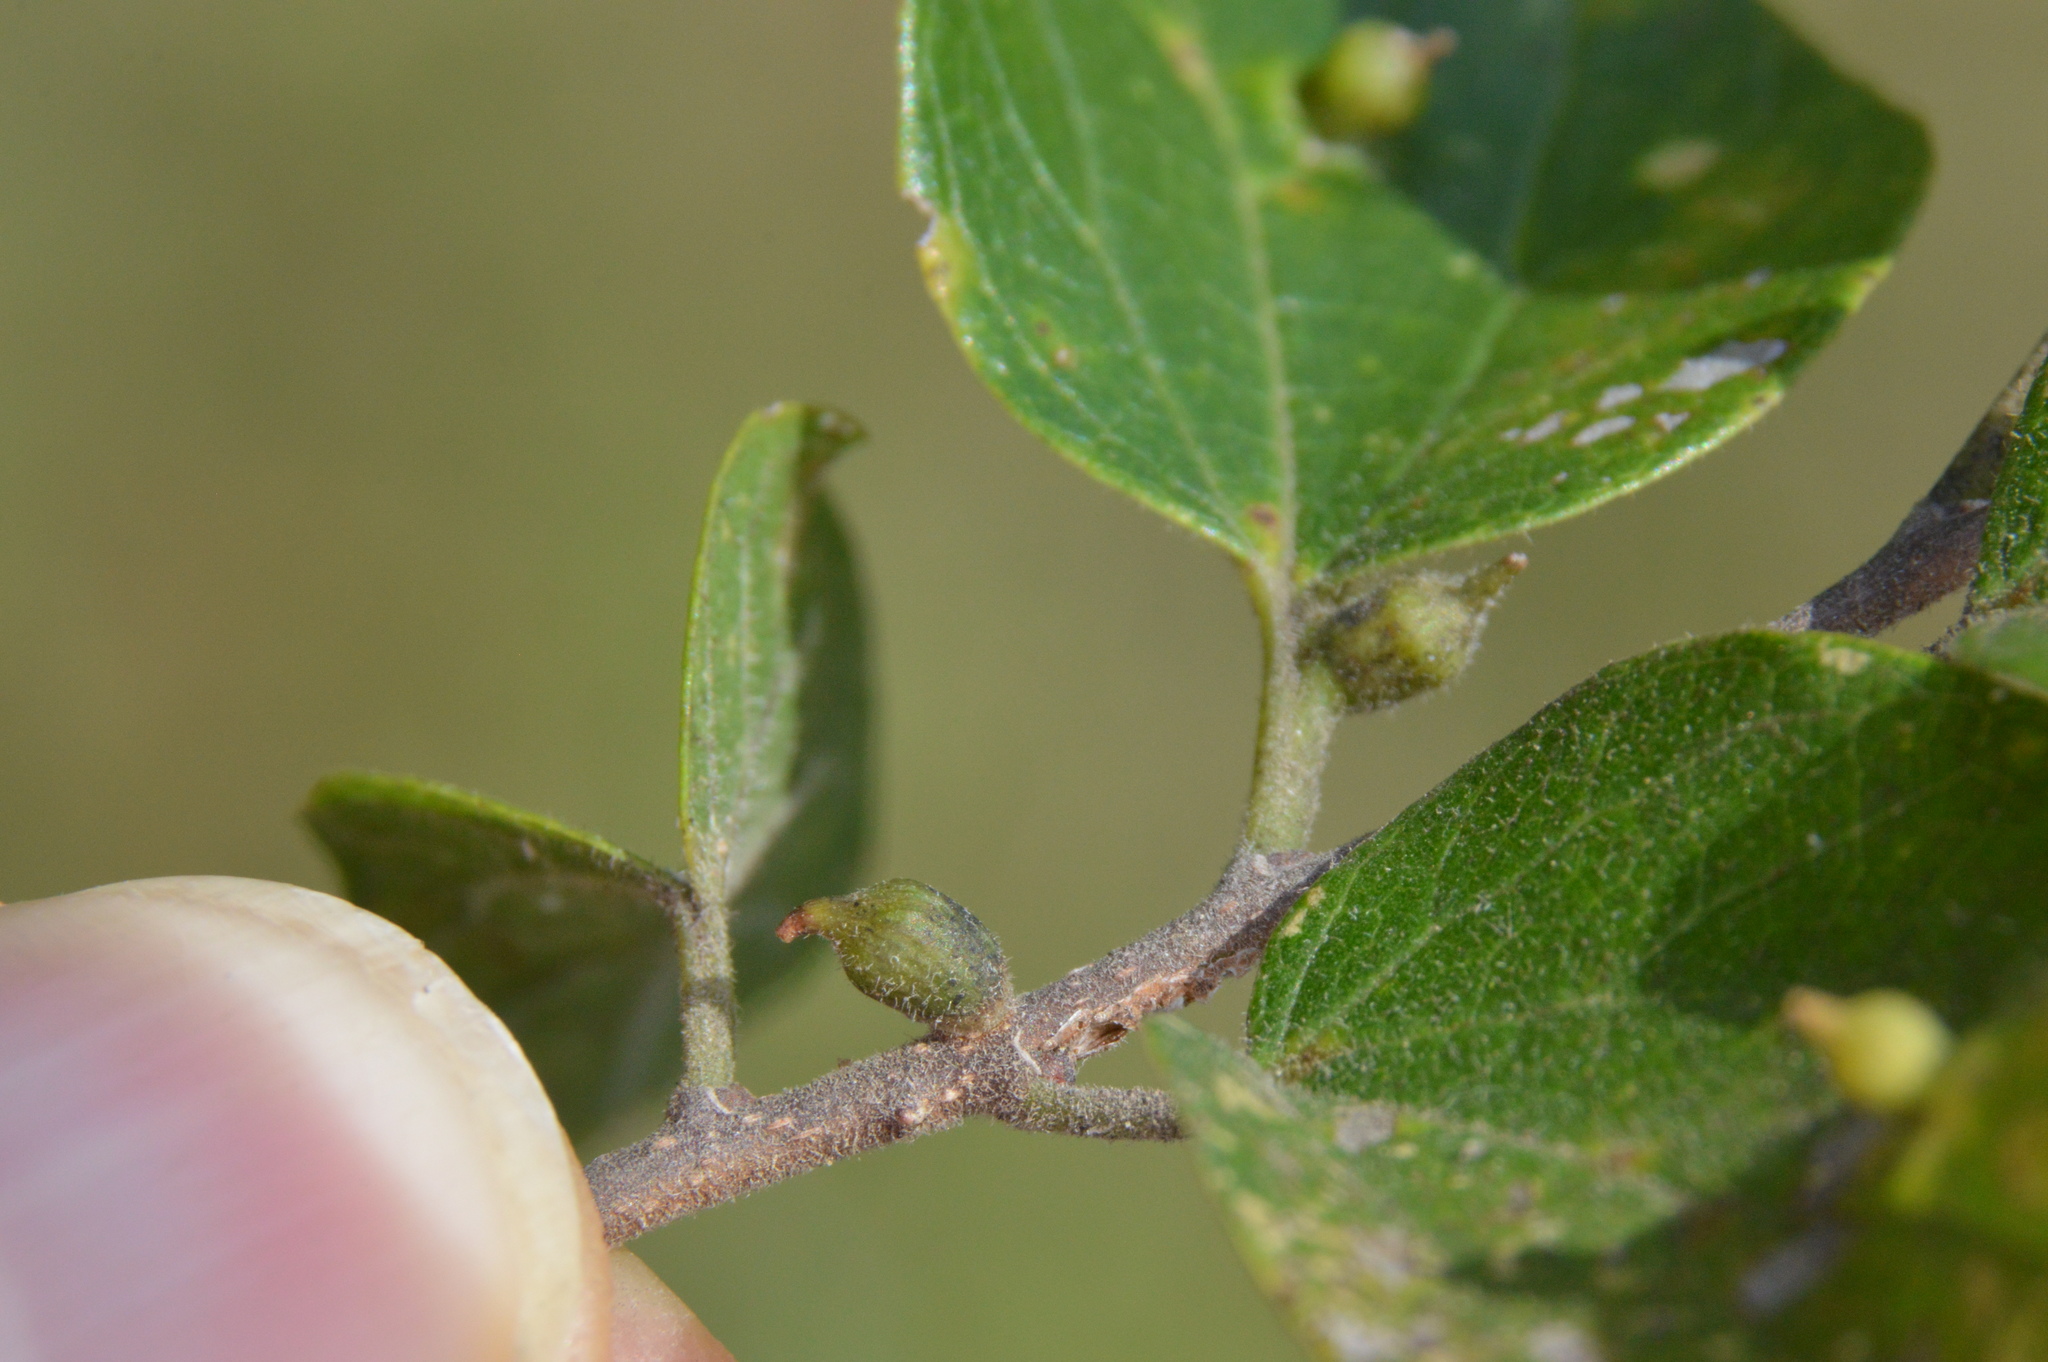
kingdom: Animalia
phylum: Arthropoda
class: Insecta
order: Diptera
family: Cecidomyiidae
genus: Celticecis
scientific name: Celticecis ramicola
